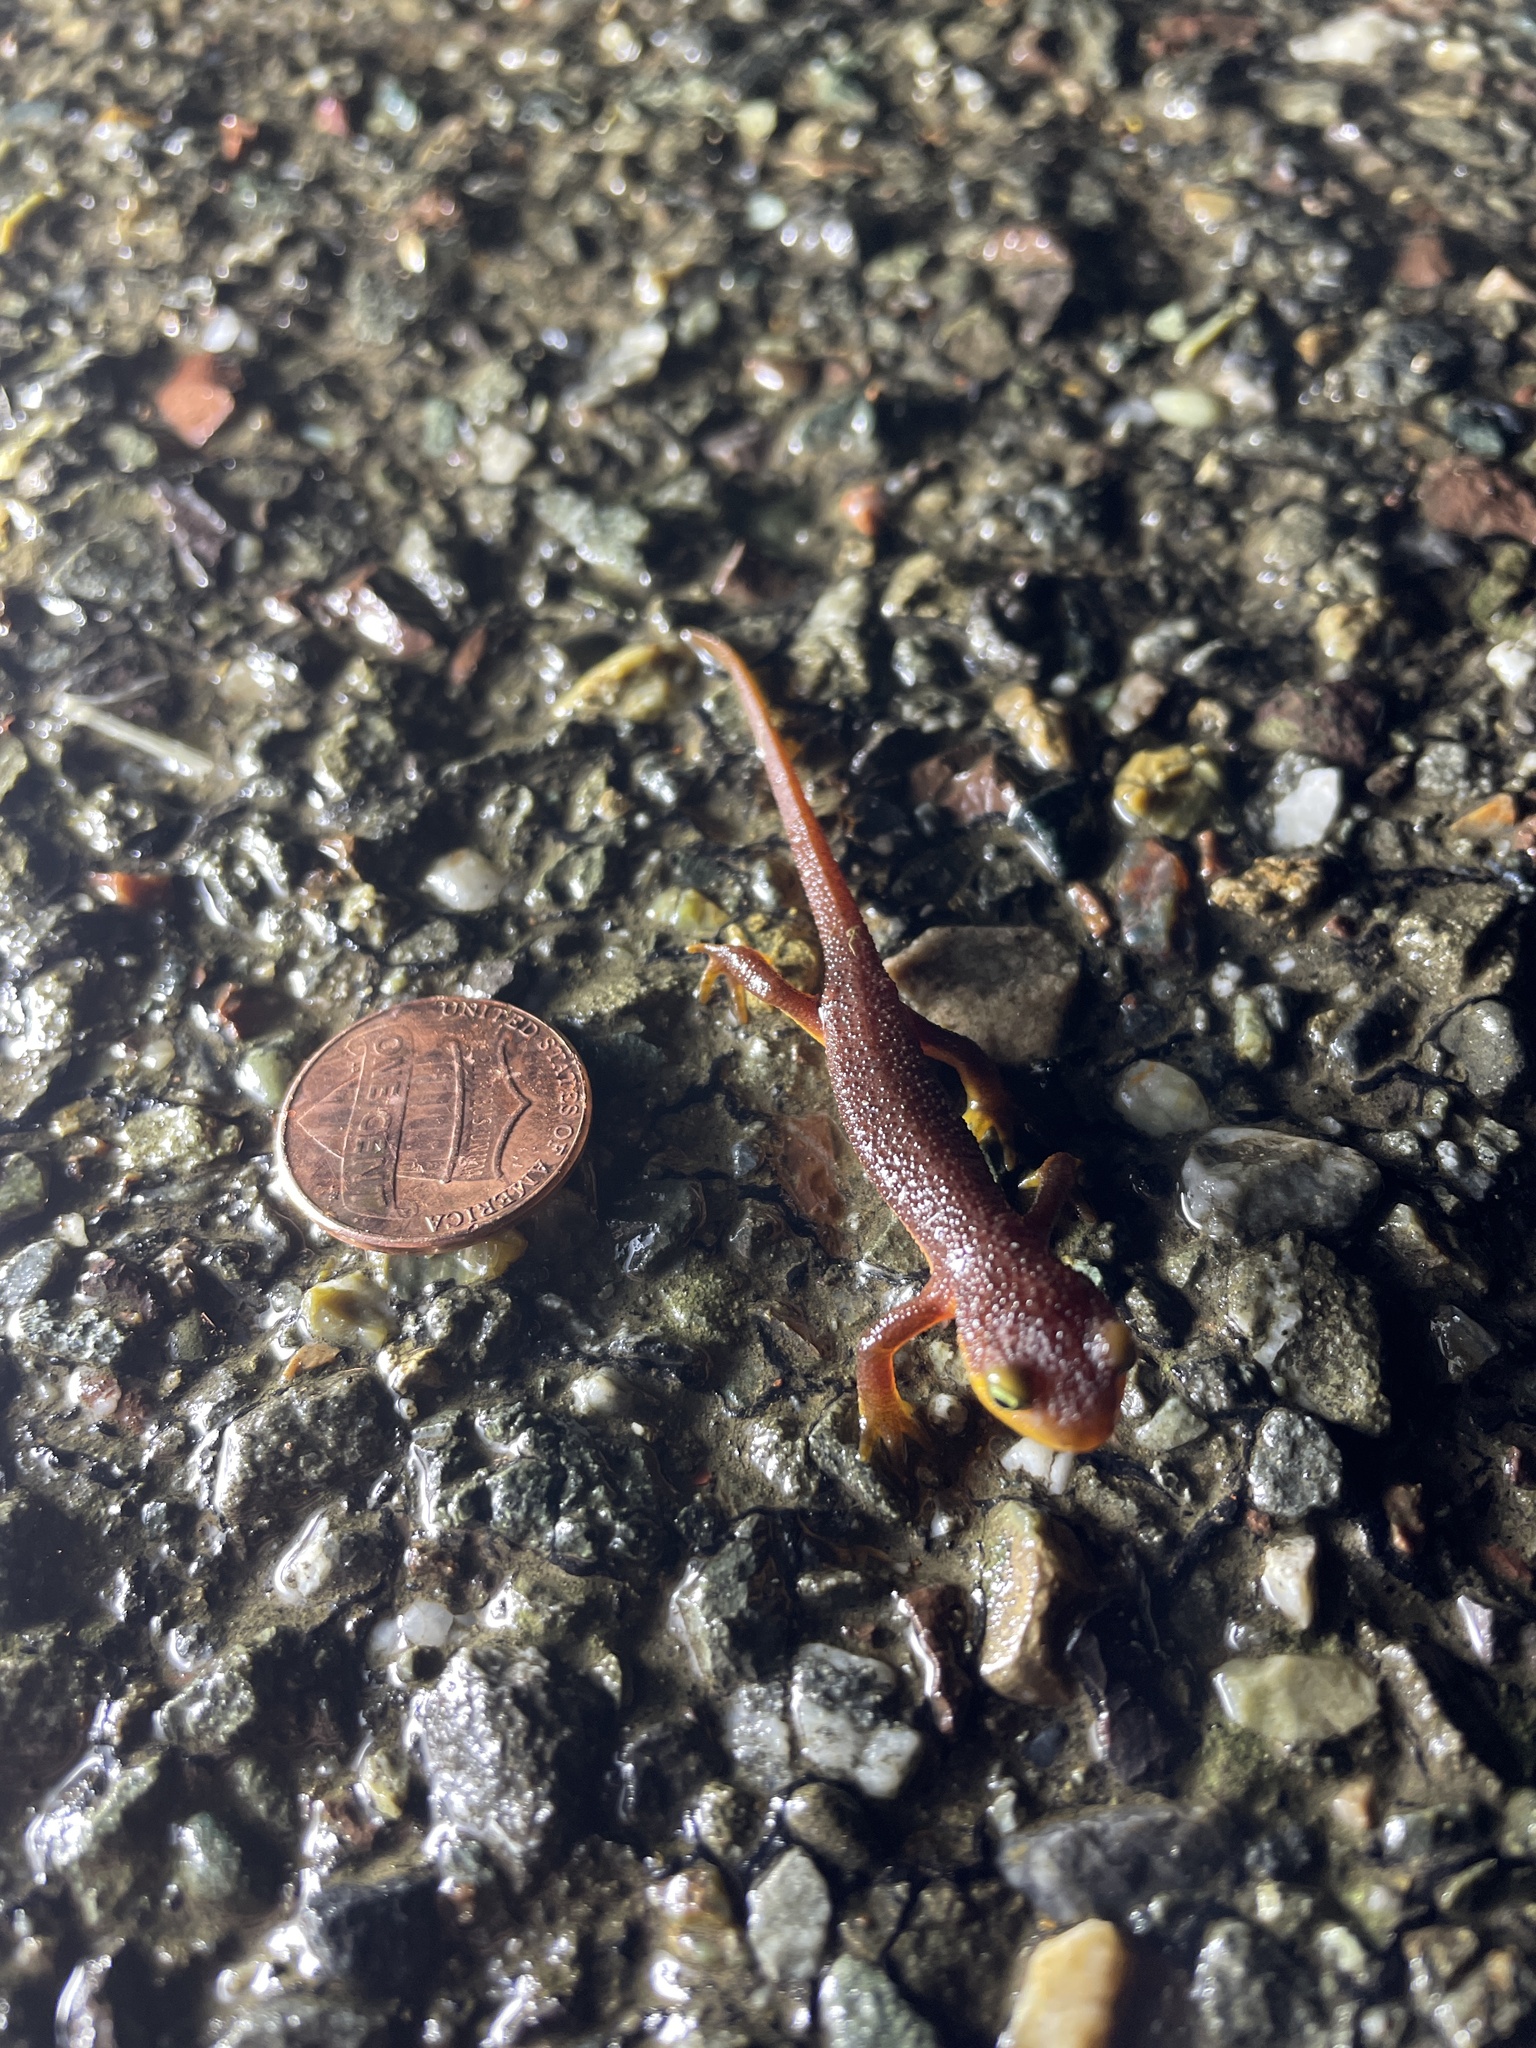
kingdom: Animalia
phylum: Chordata
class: Amphibia
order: Caudata
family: Salamandridae
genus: Taricha
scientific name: Taricha torosa
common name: California newt
